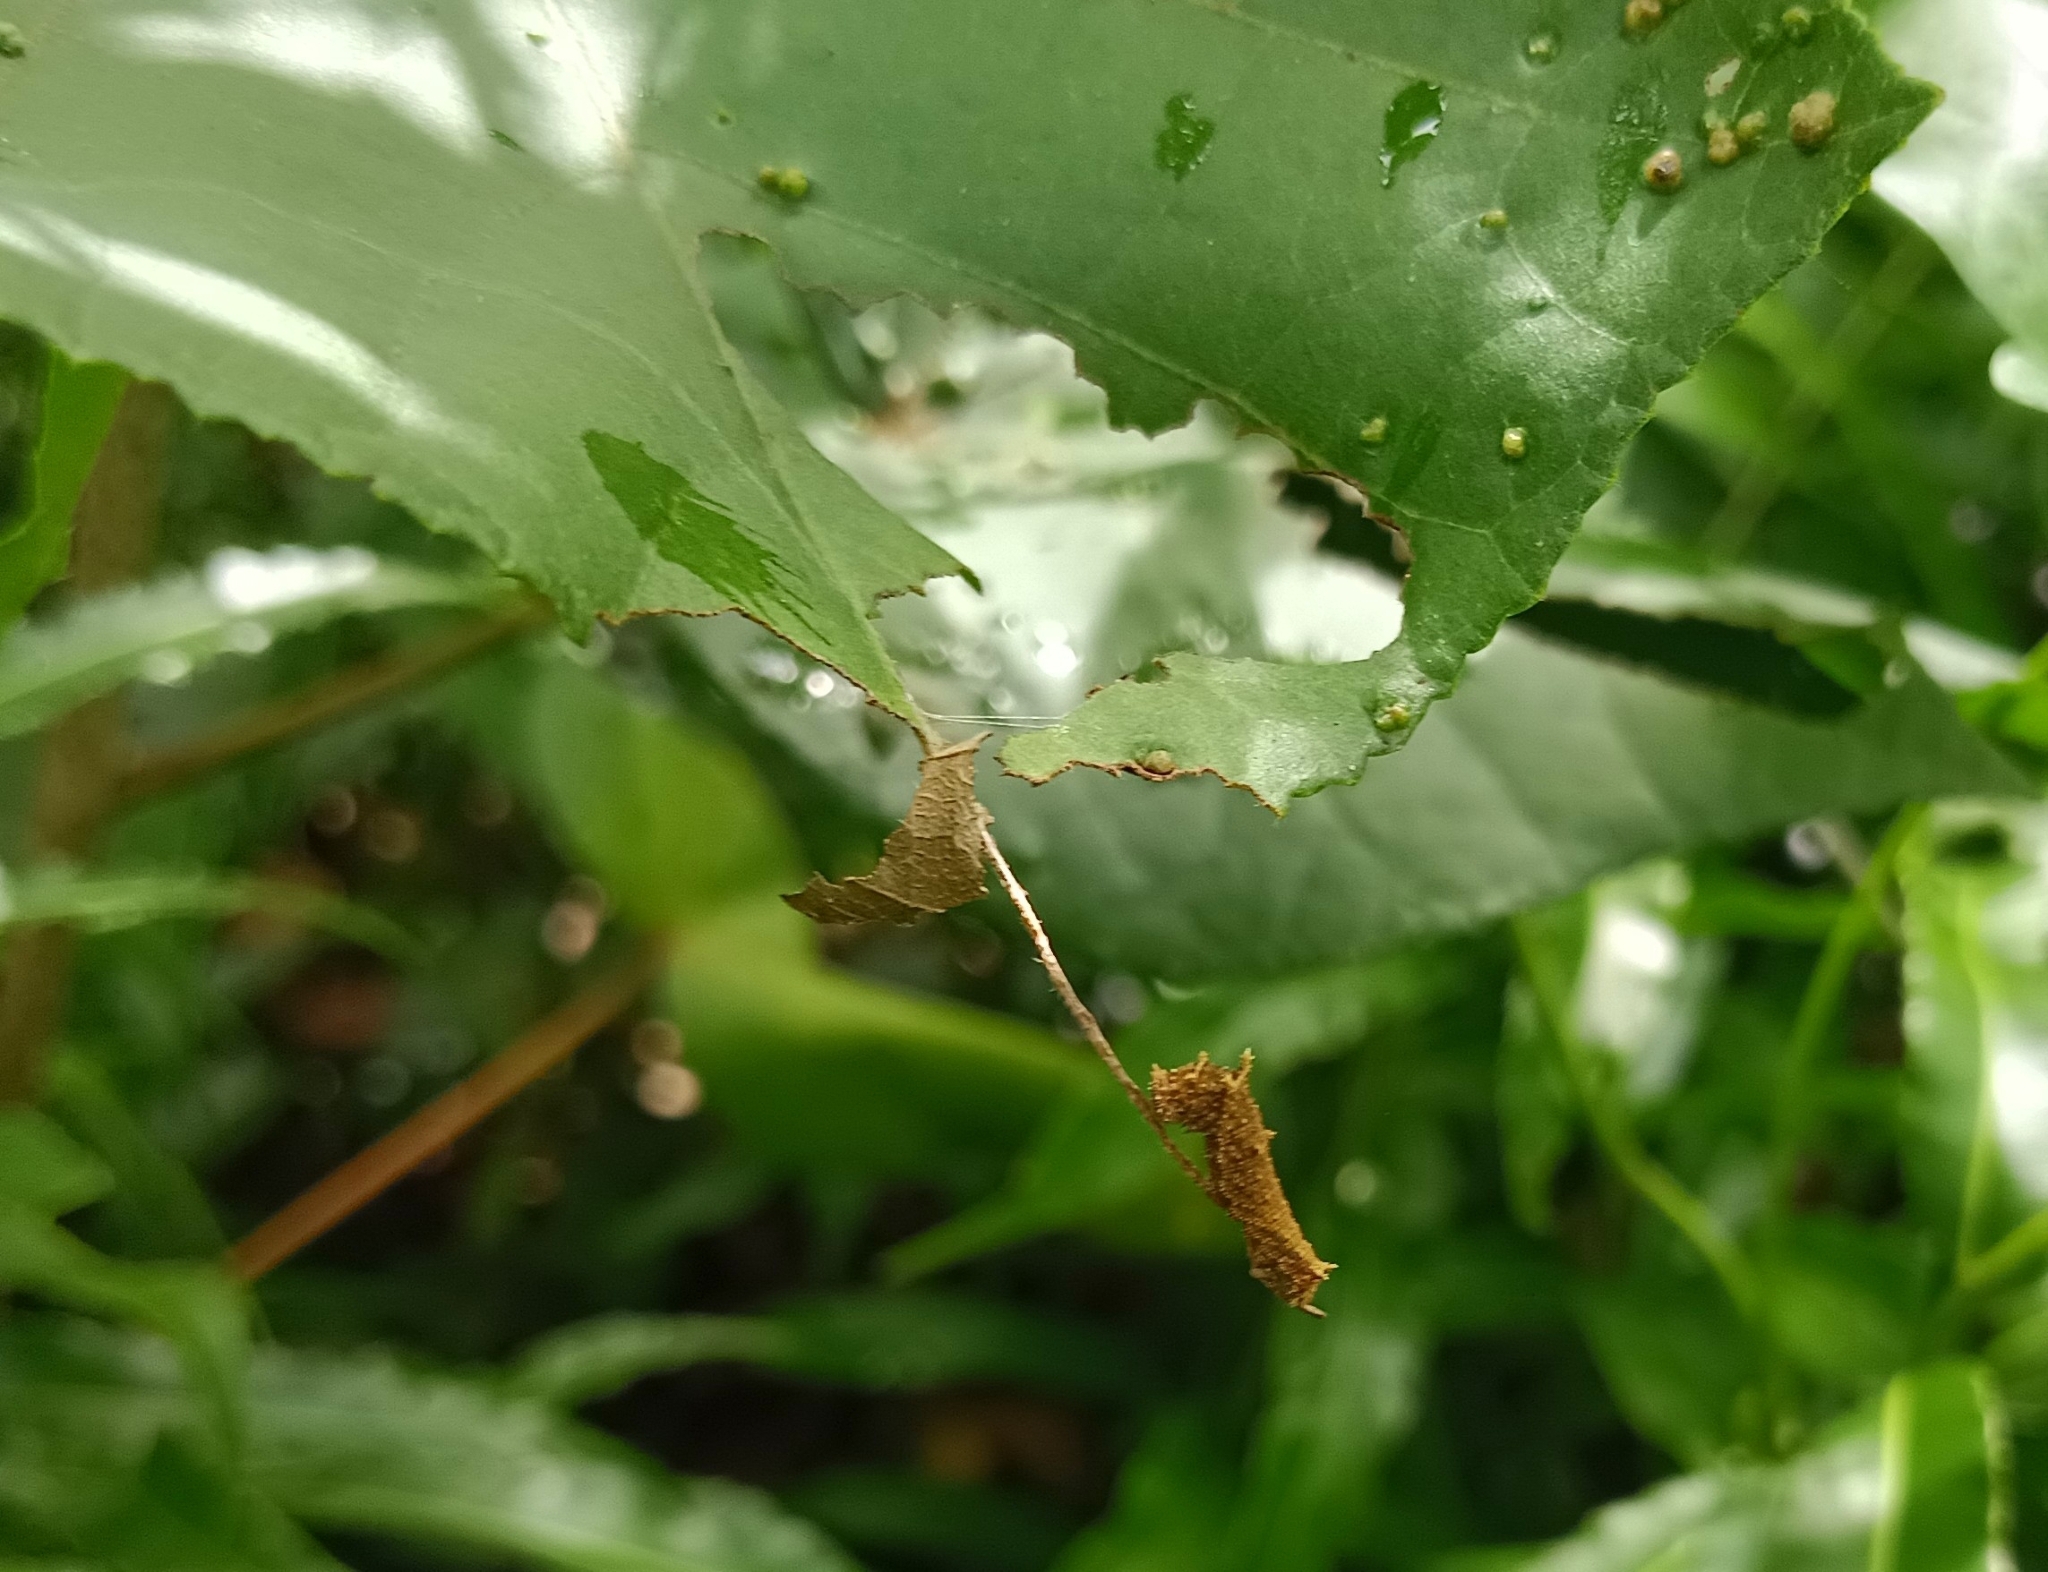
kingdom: Animalia
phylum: Arthropoda
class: Insecta
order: Lepidoptera
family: Nymphalidae
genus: Neptis
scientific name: Neptis jumbah
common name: Chestnut-streaked sailer
